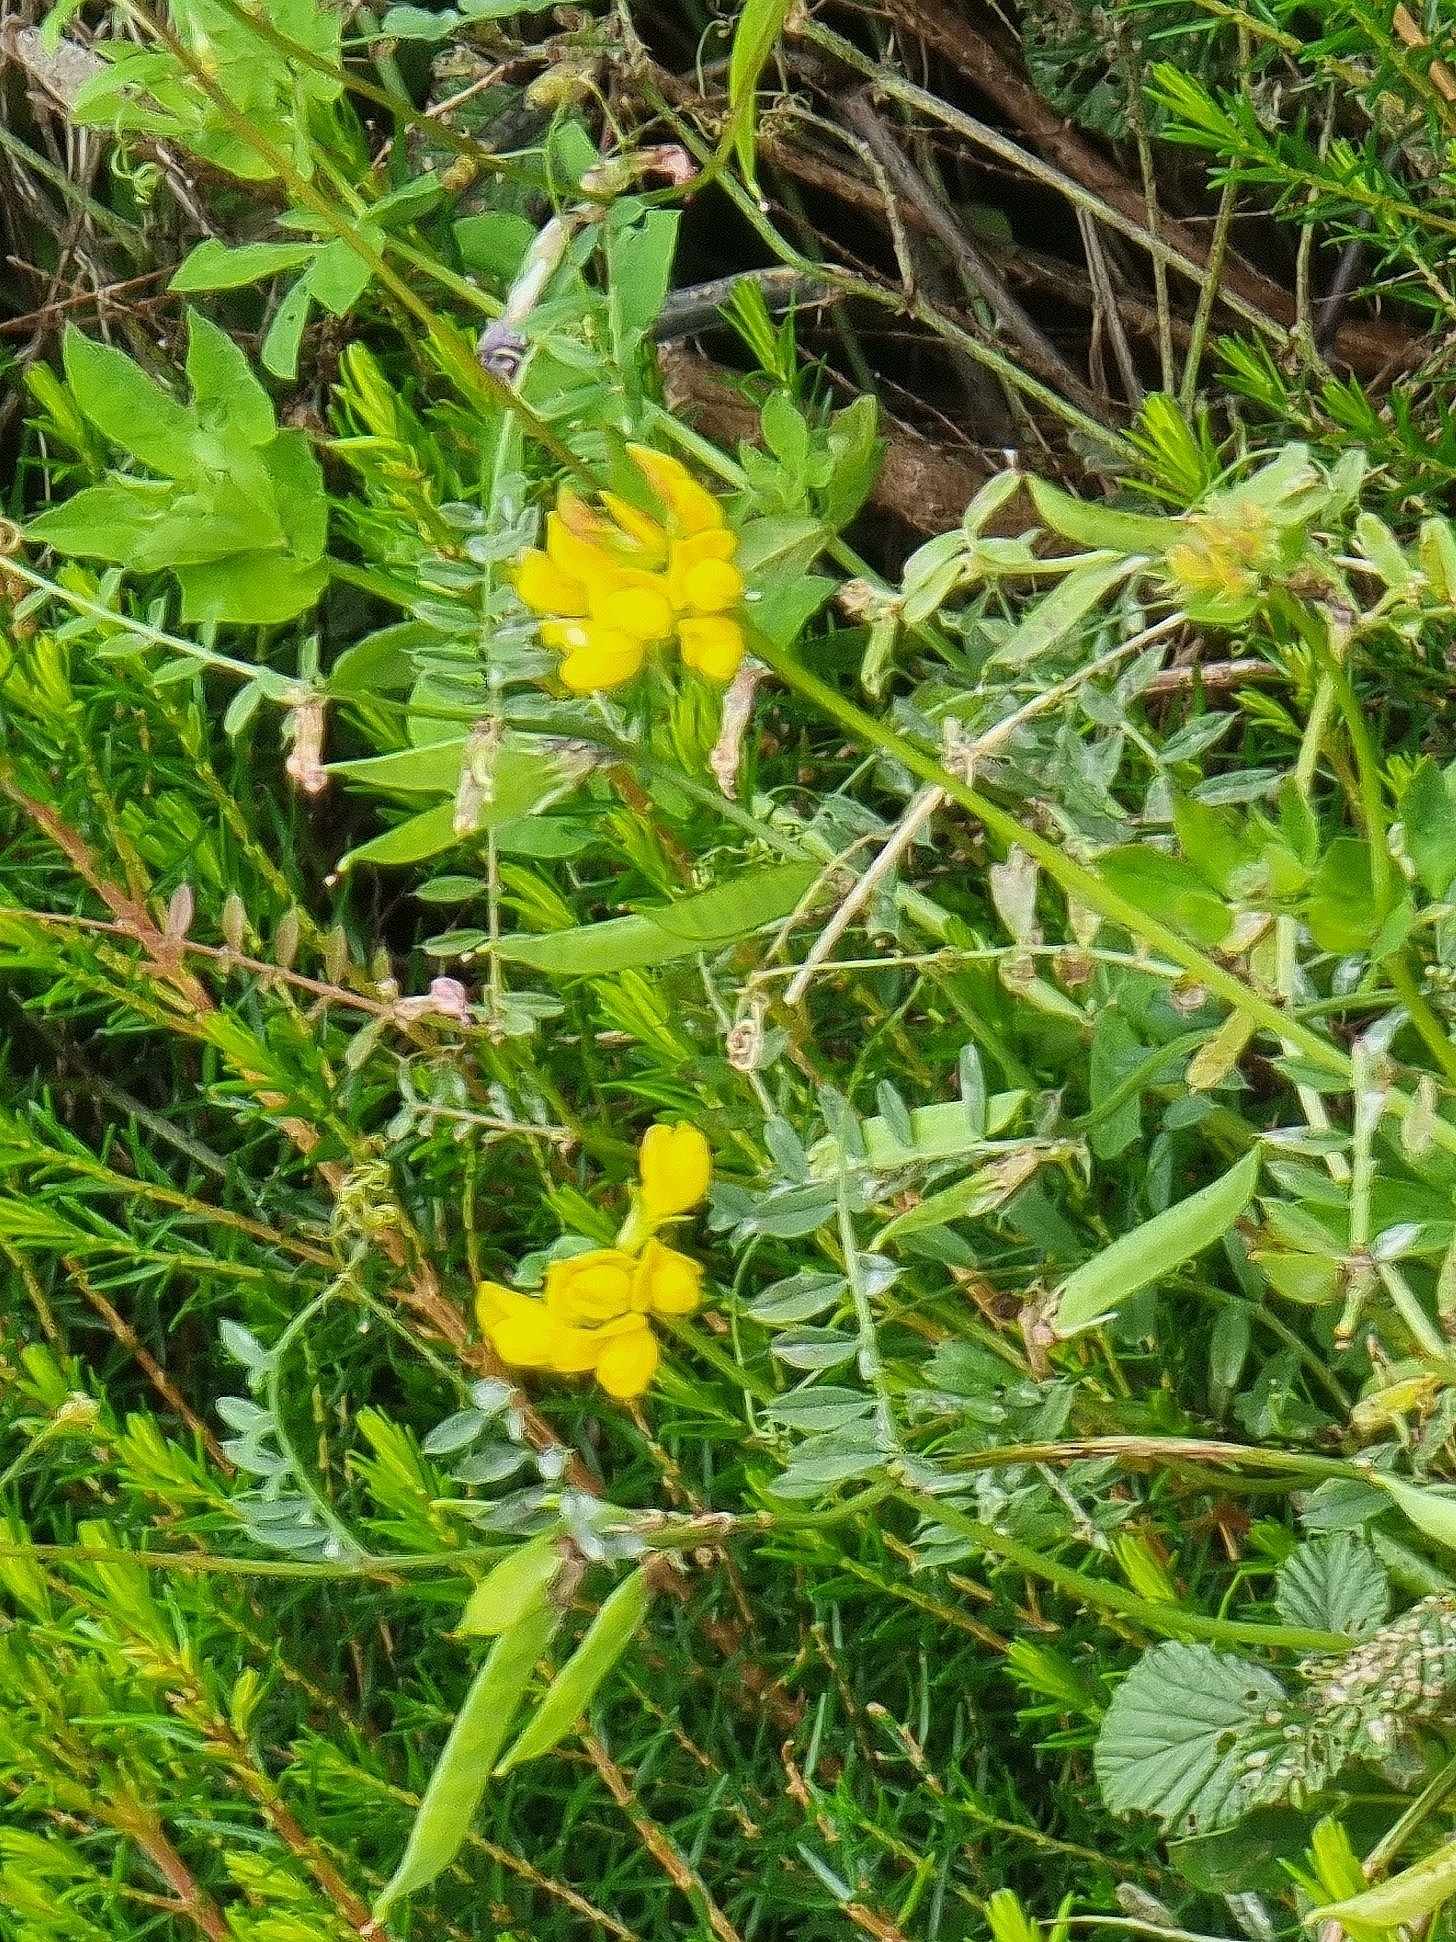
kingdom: Plantae
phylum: Tracheophyta
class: Magnoliopsida
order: Fabales
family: Fabaceae
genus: Lotus
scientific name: Lotus pedunculatus
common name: Greater birdsfoot-trefoil
